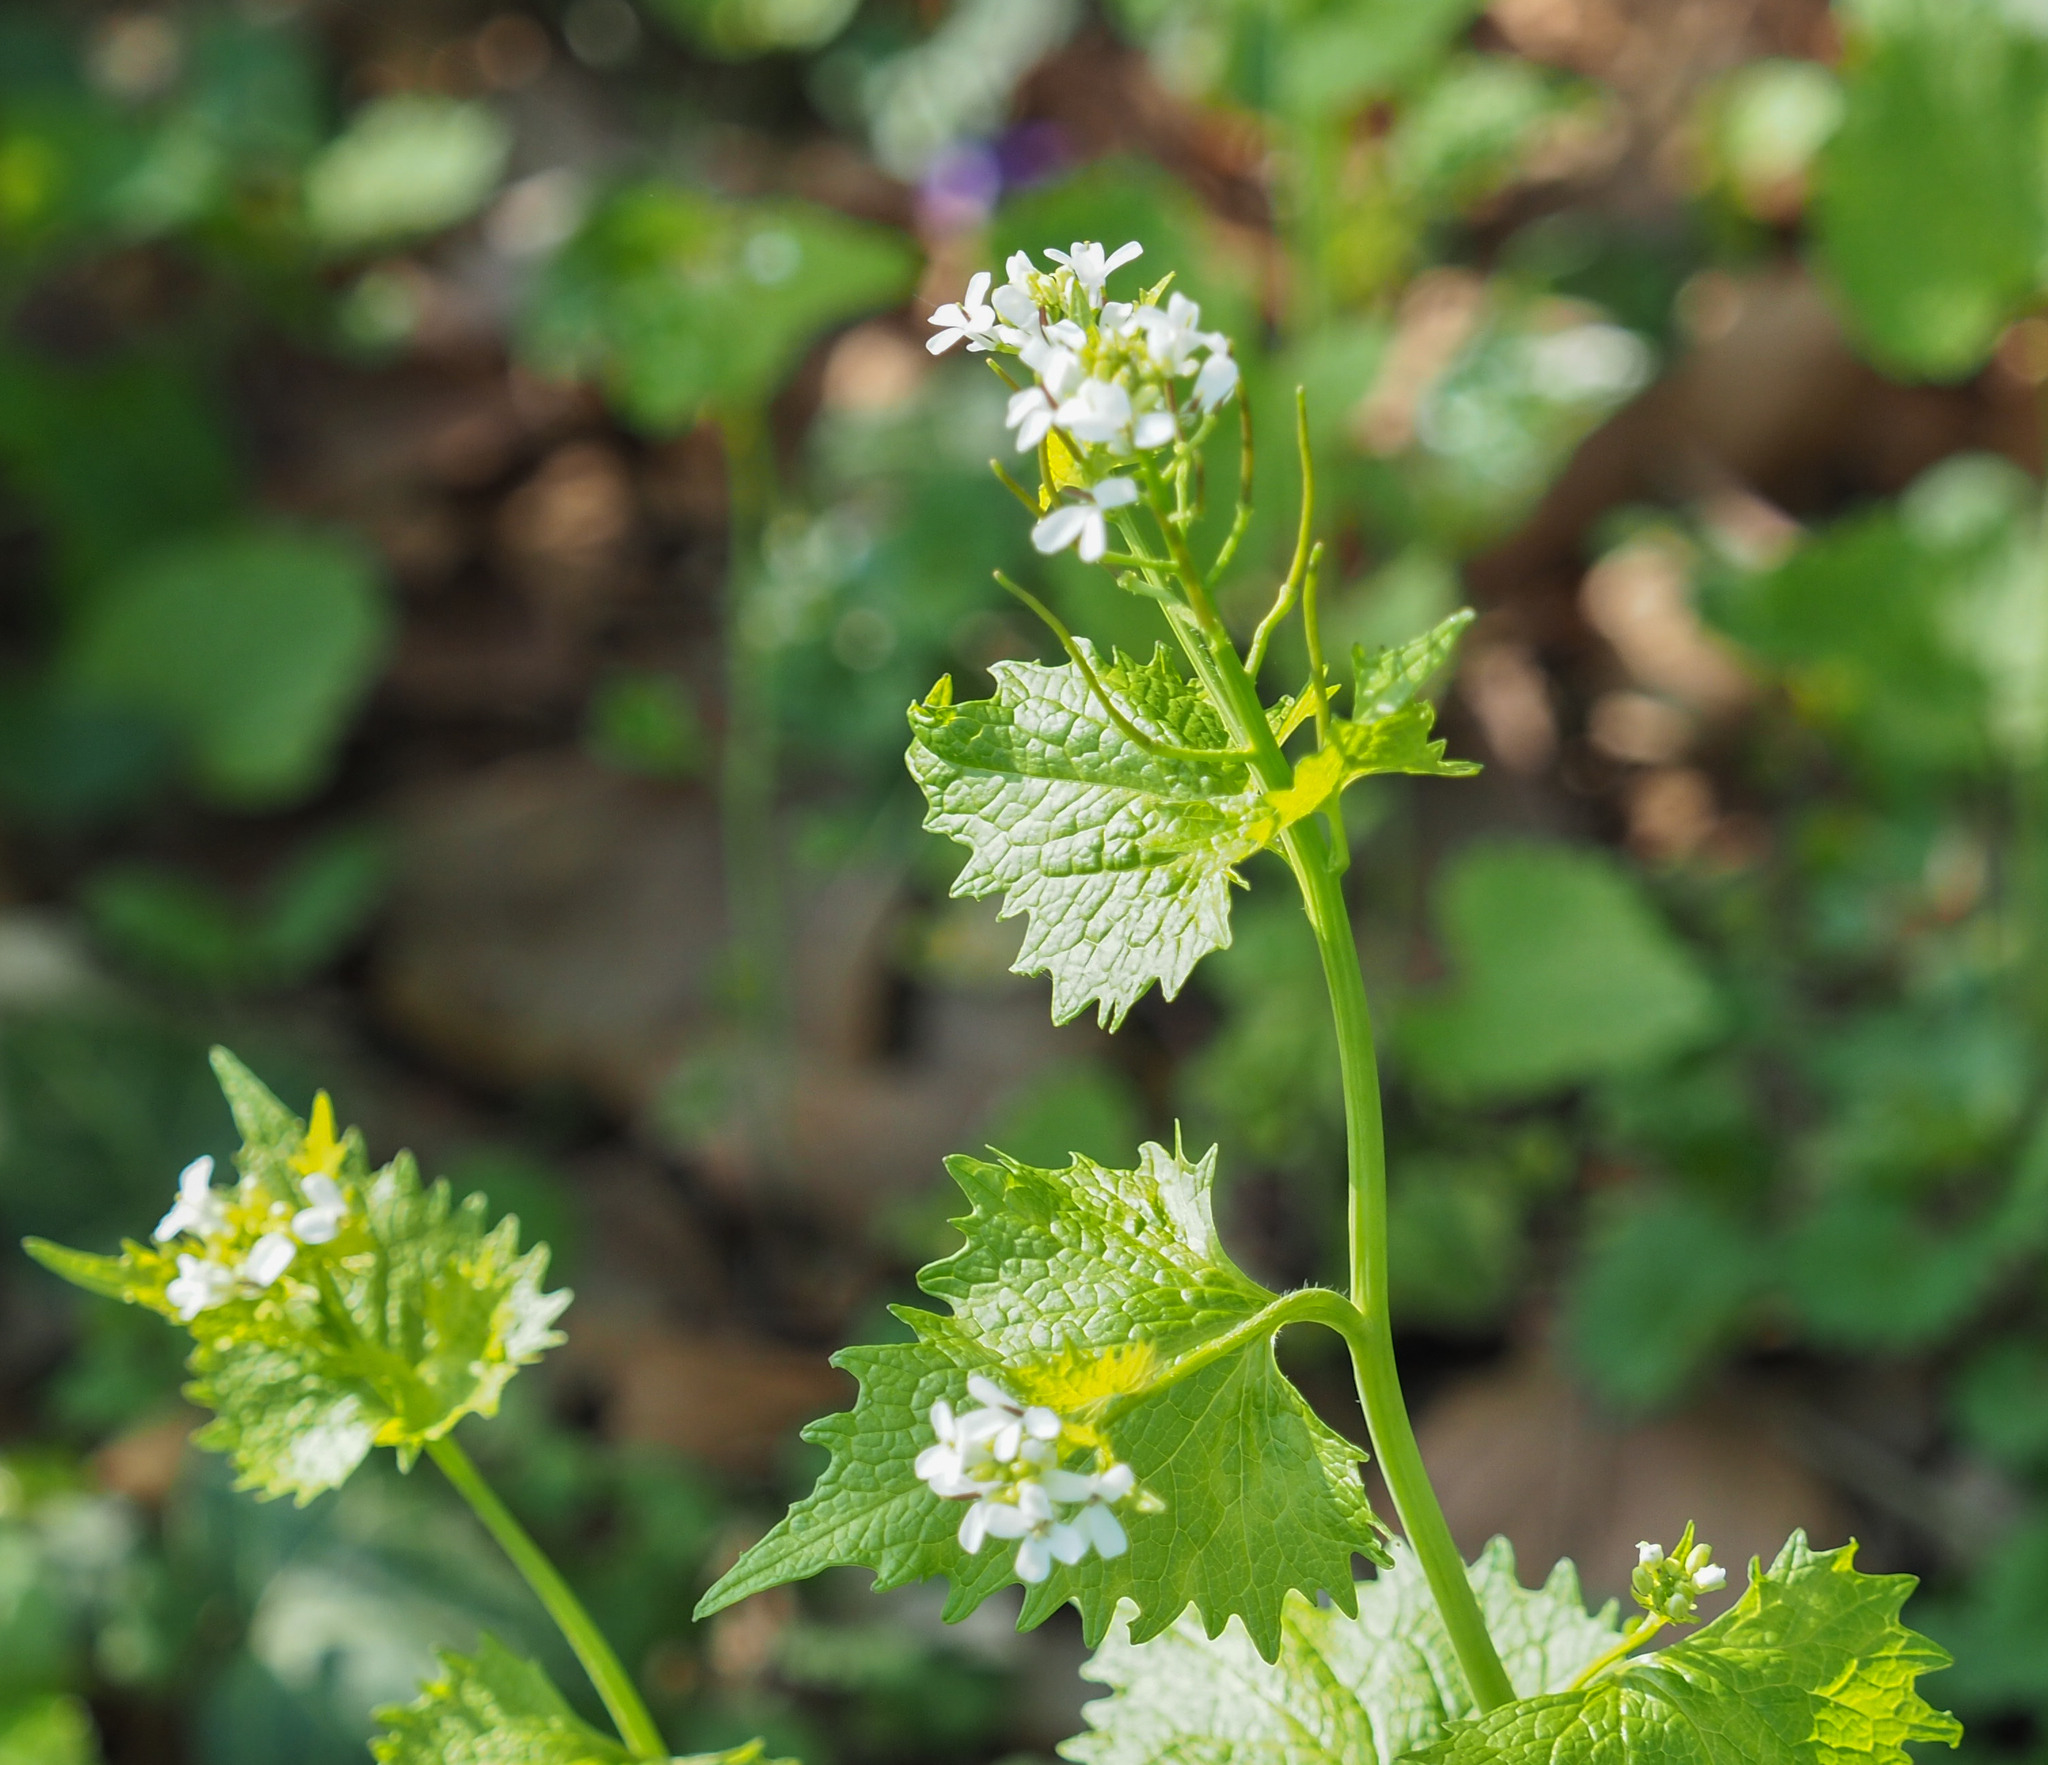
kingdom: Plantae
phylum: Tracheophyta
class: Magnoliopsida
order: Brassicales
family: Brassicaceae
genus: Alliaria
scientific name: Alliaria petiolata
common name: Garlic mustard
